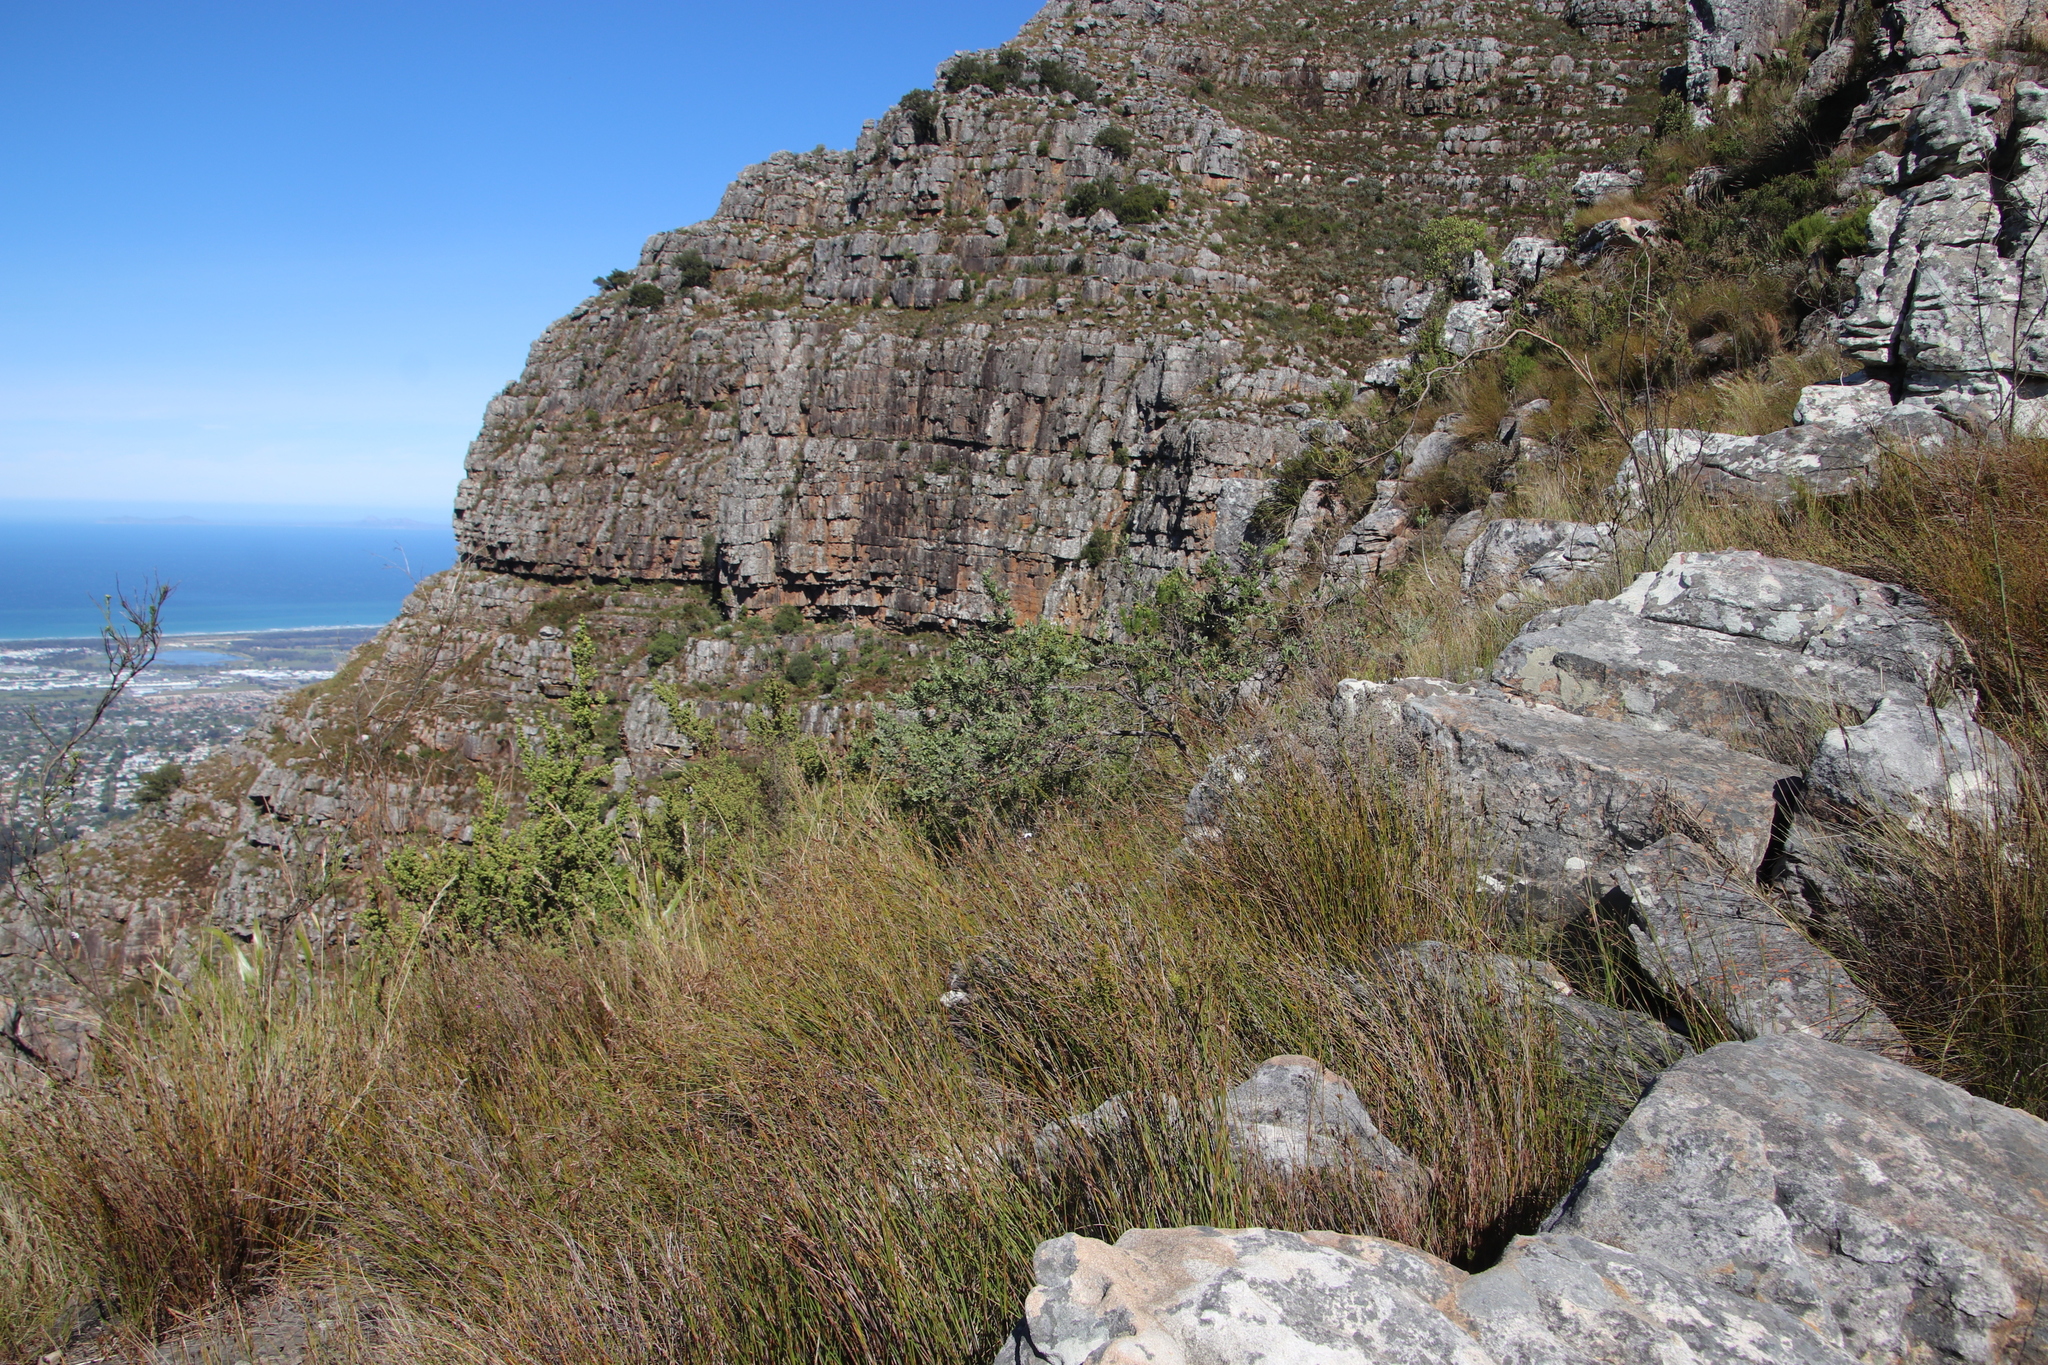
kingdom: Plantae
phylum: Tracheophyta
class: Magnoliopsida
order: Rosales
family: Rosaceae
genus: Cliffortia
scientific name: Cliffortia cuneata
